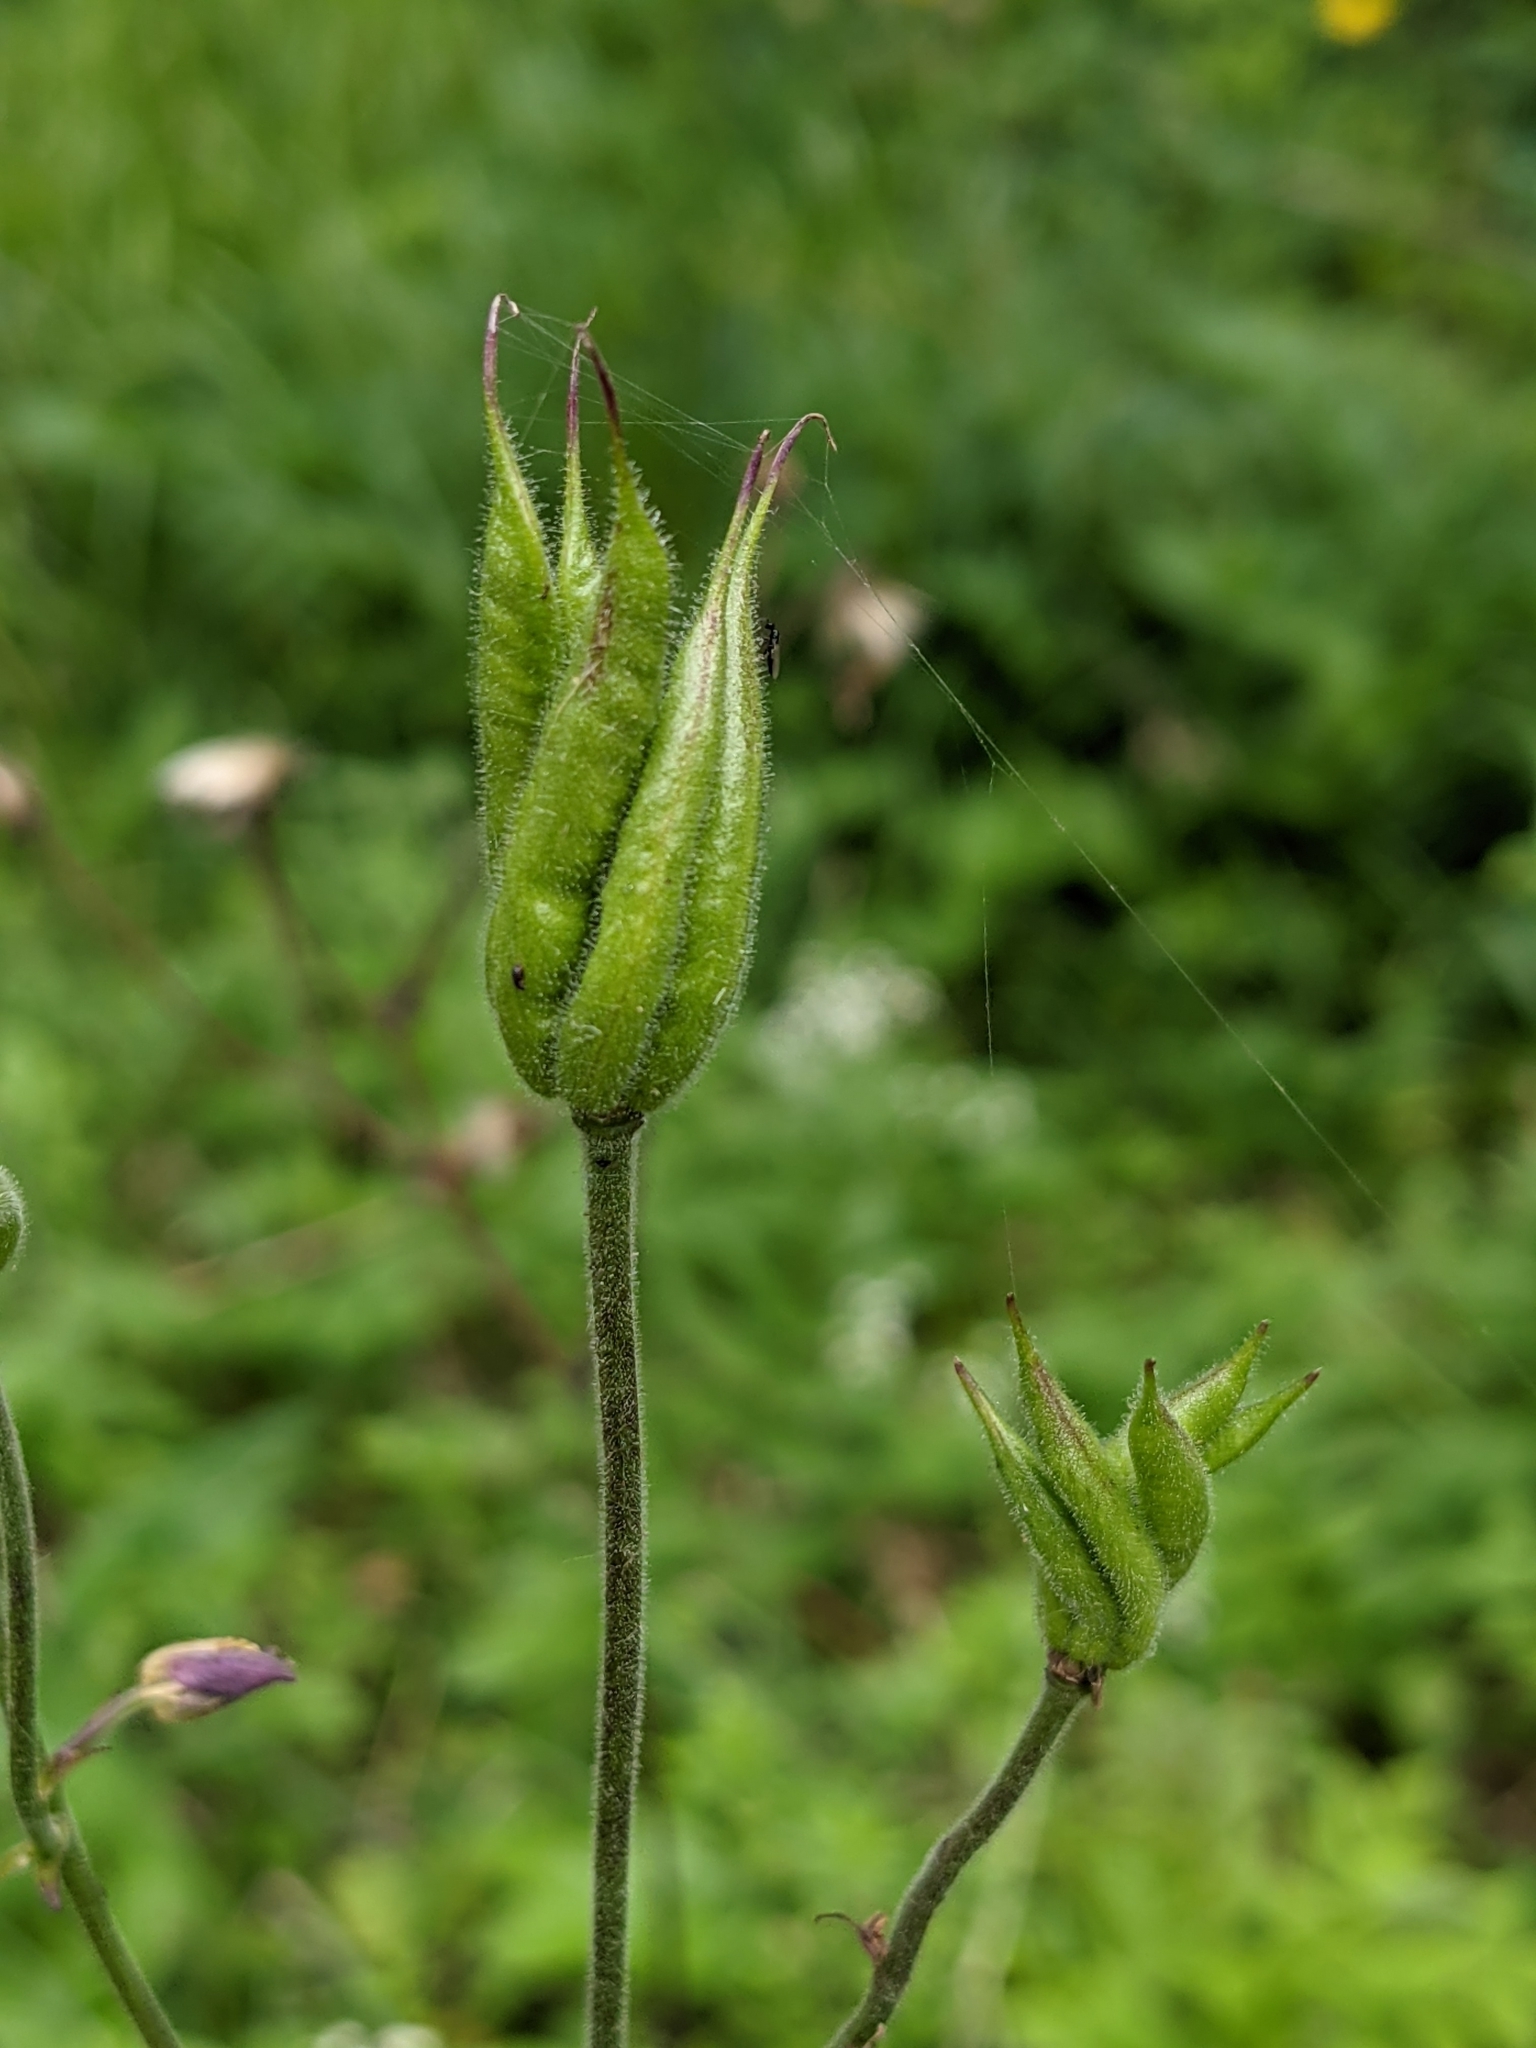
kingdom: Plantae
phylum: Tracheophyta
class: Magnoliopsida
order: Ranunculales
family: Ranunculaceae
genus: Aquilegia
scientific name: Aquilegia vulgaris
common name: Columbine
